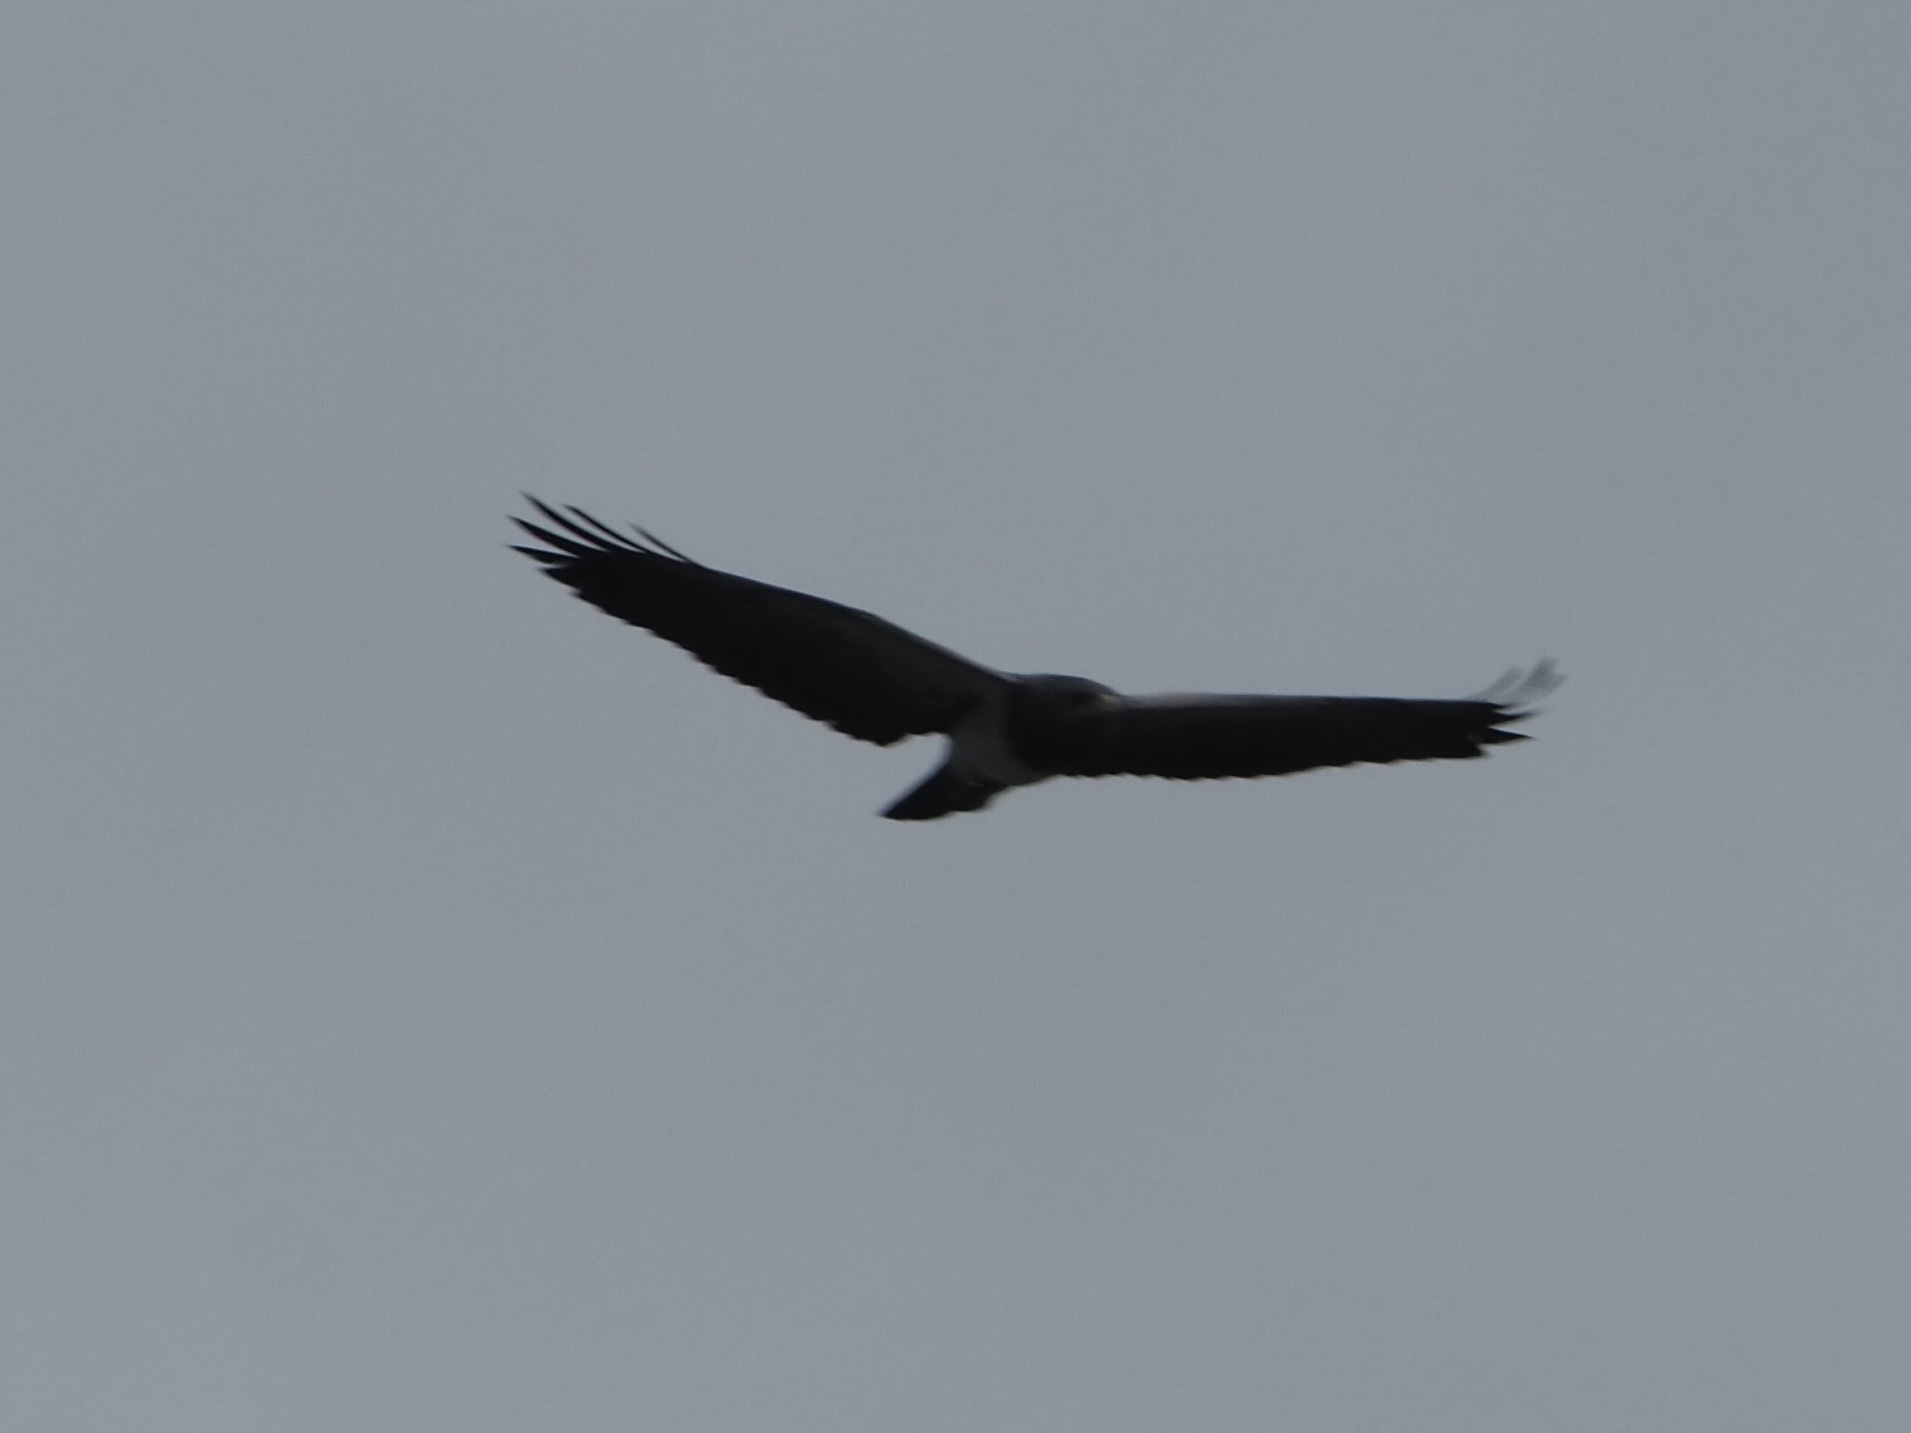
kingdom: Animalia
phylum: Chordata
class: Aves
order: Accipitriformes
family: Accipitridae
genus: Geranoaetus
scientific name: Geranoaetus melanoleucus
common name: Black-chested buzzard-eagle
